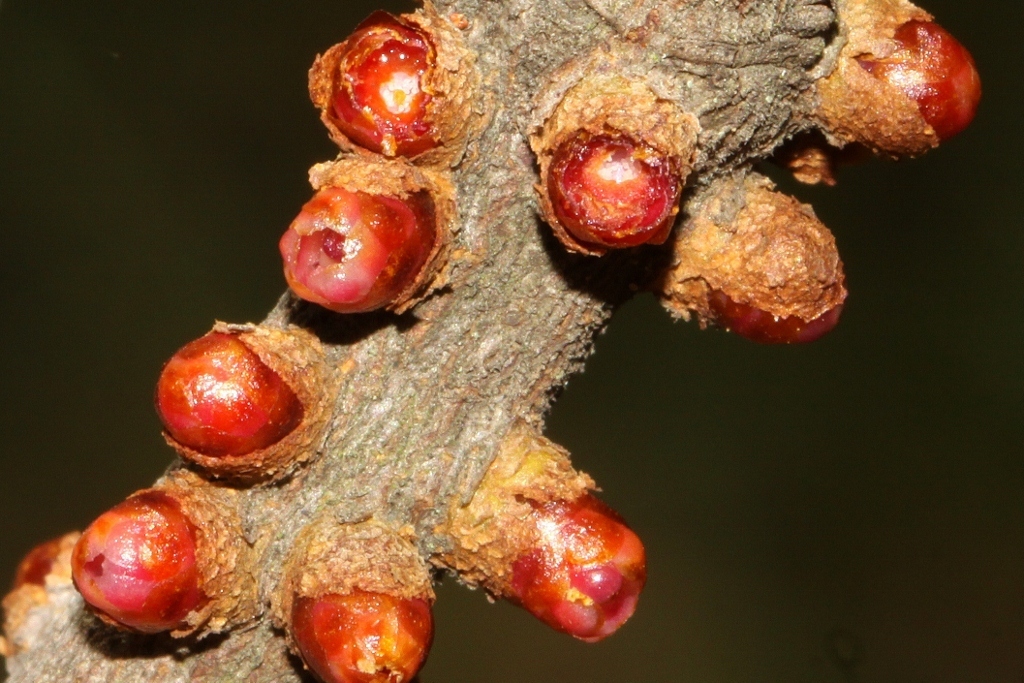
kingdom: Plantae
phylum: Tracheophyta
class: Magnoliopsida
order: Cucurbitales
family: Apodanthaceae
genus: Pilostyles
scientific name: Pilostyles aethiopica
